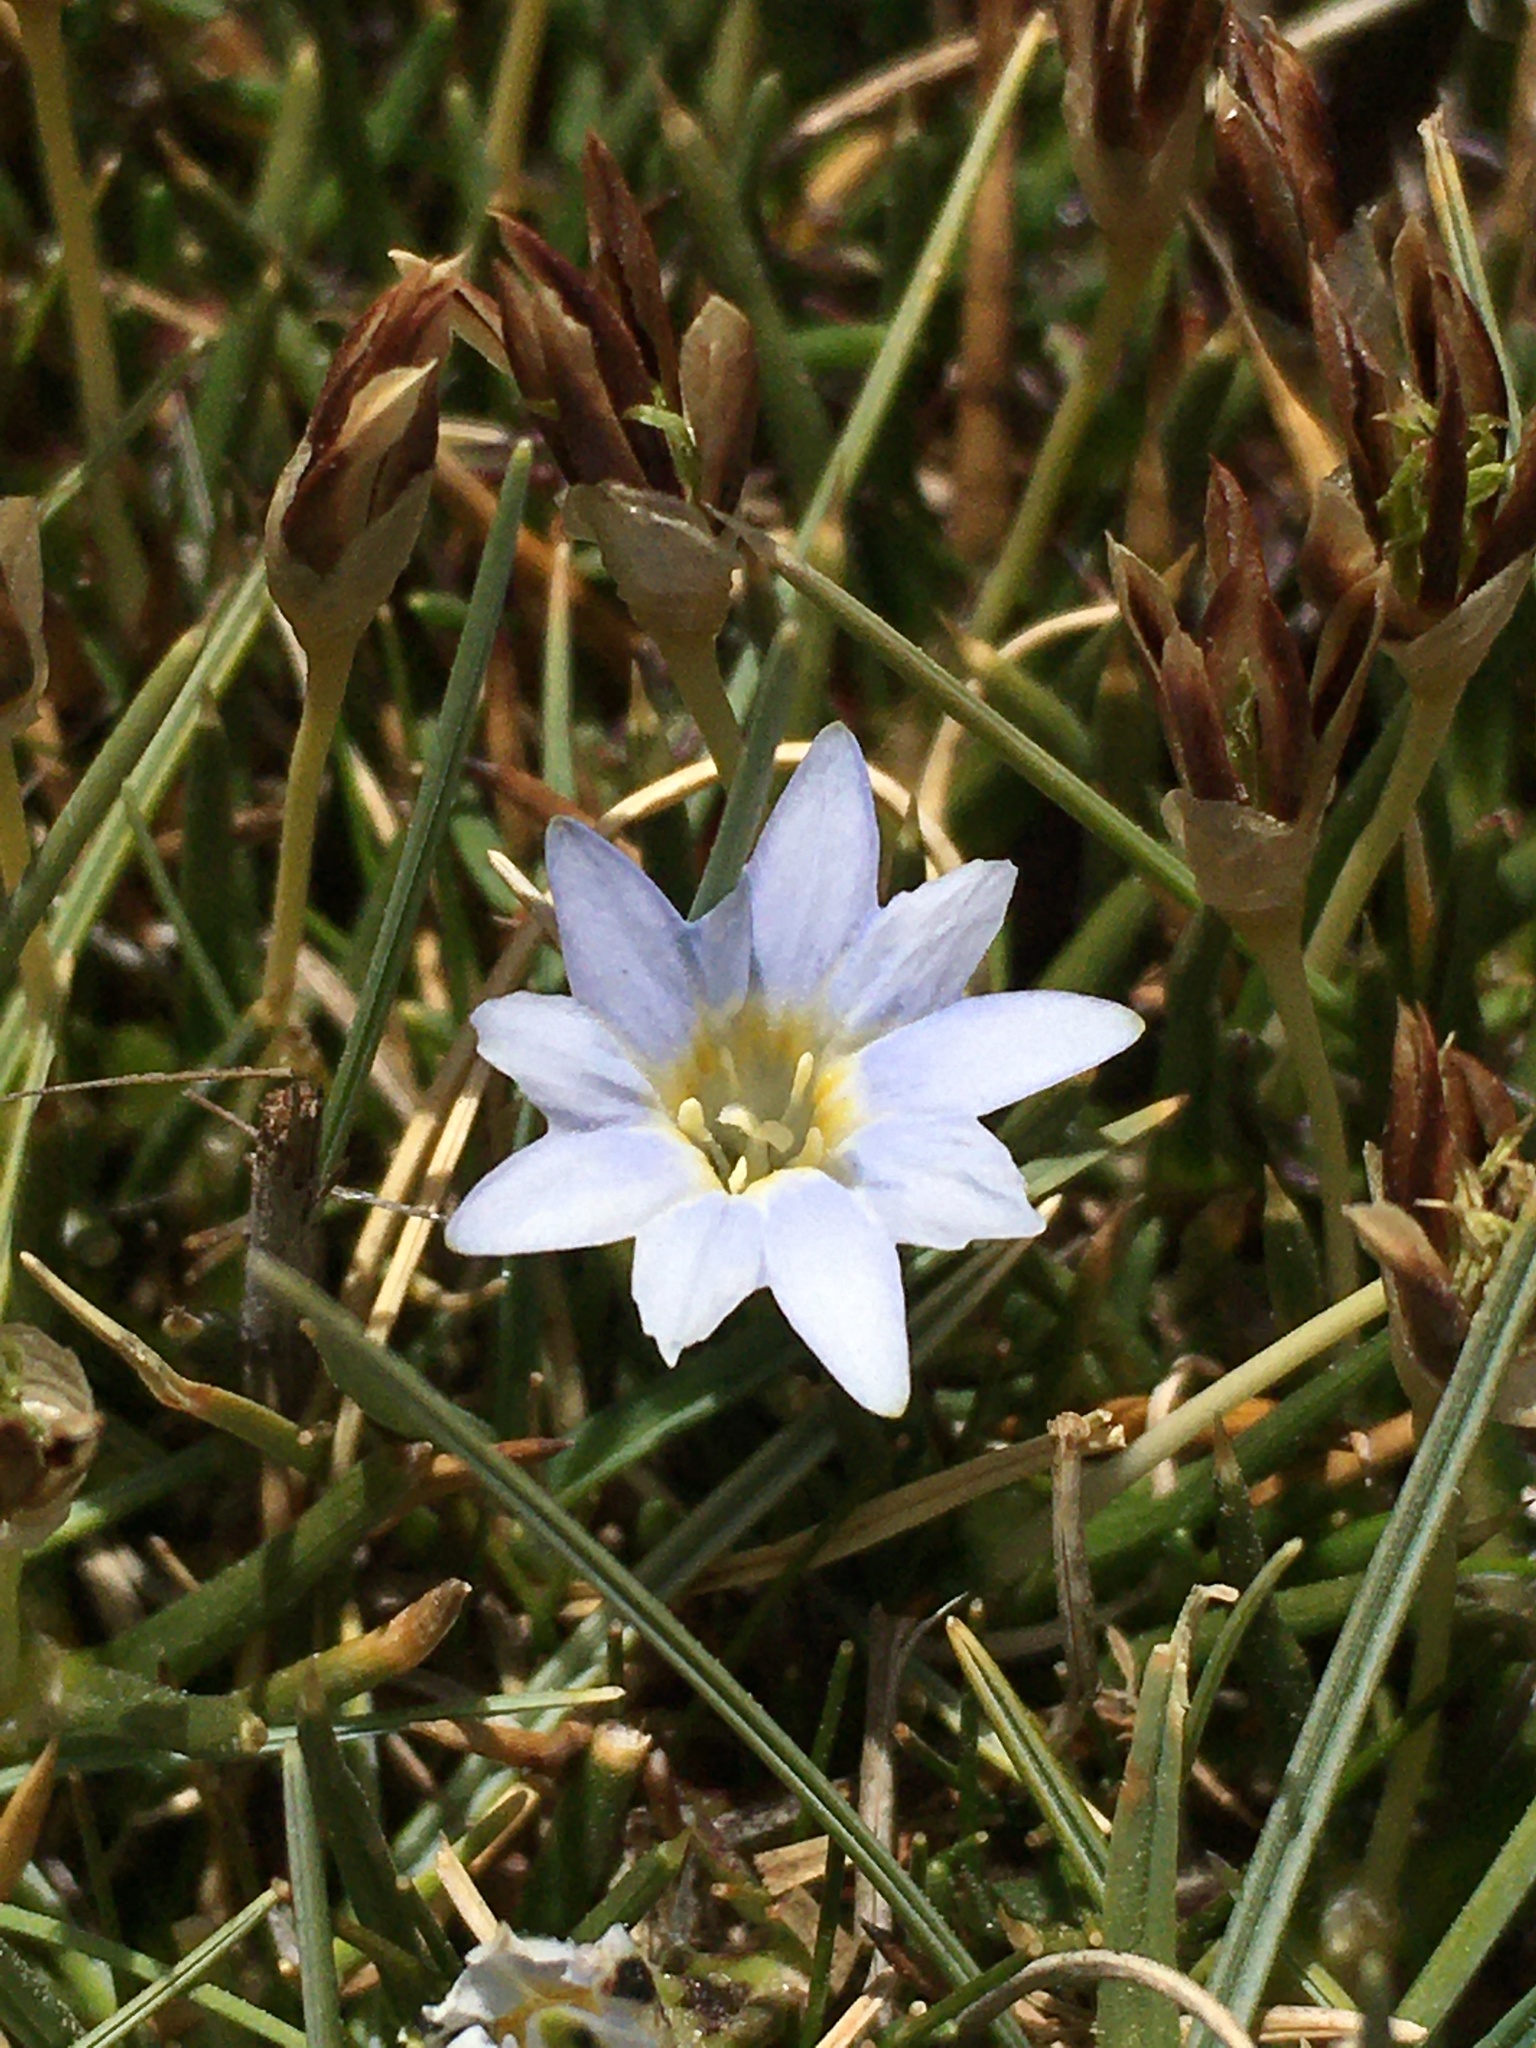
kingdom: Plantae
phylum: Tracheophyta
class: Magnoliopsida
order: Gentianales
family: Gentianaceae
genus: Gentiana
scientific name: Gentiana sedifolia
